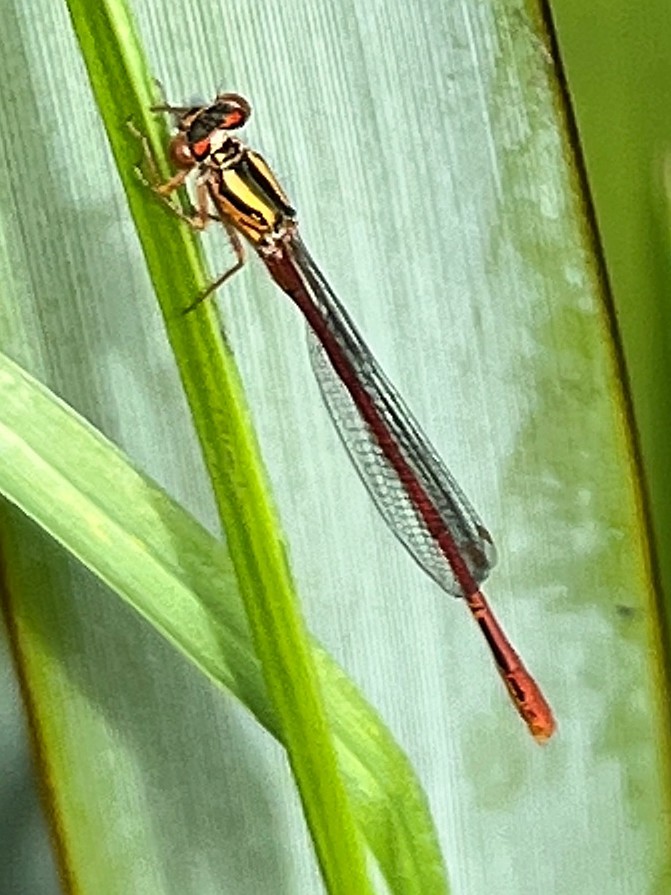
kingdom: Animalia
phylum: Arthropoda
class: Insecta
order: Odonata
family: Coenagrionidae
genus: Xanthocnemis
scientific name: Xanthocnemis zealandica
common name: Common redcoat damselfly
